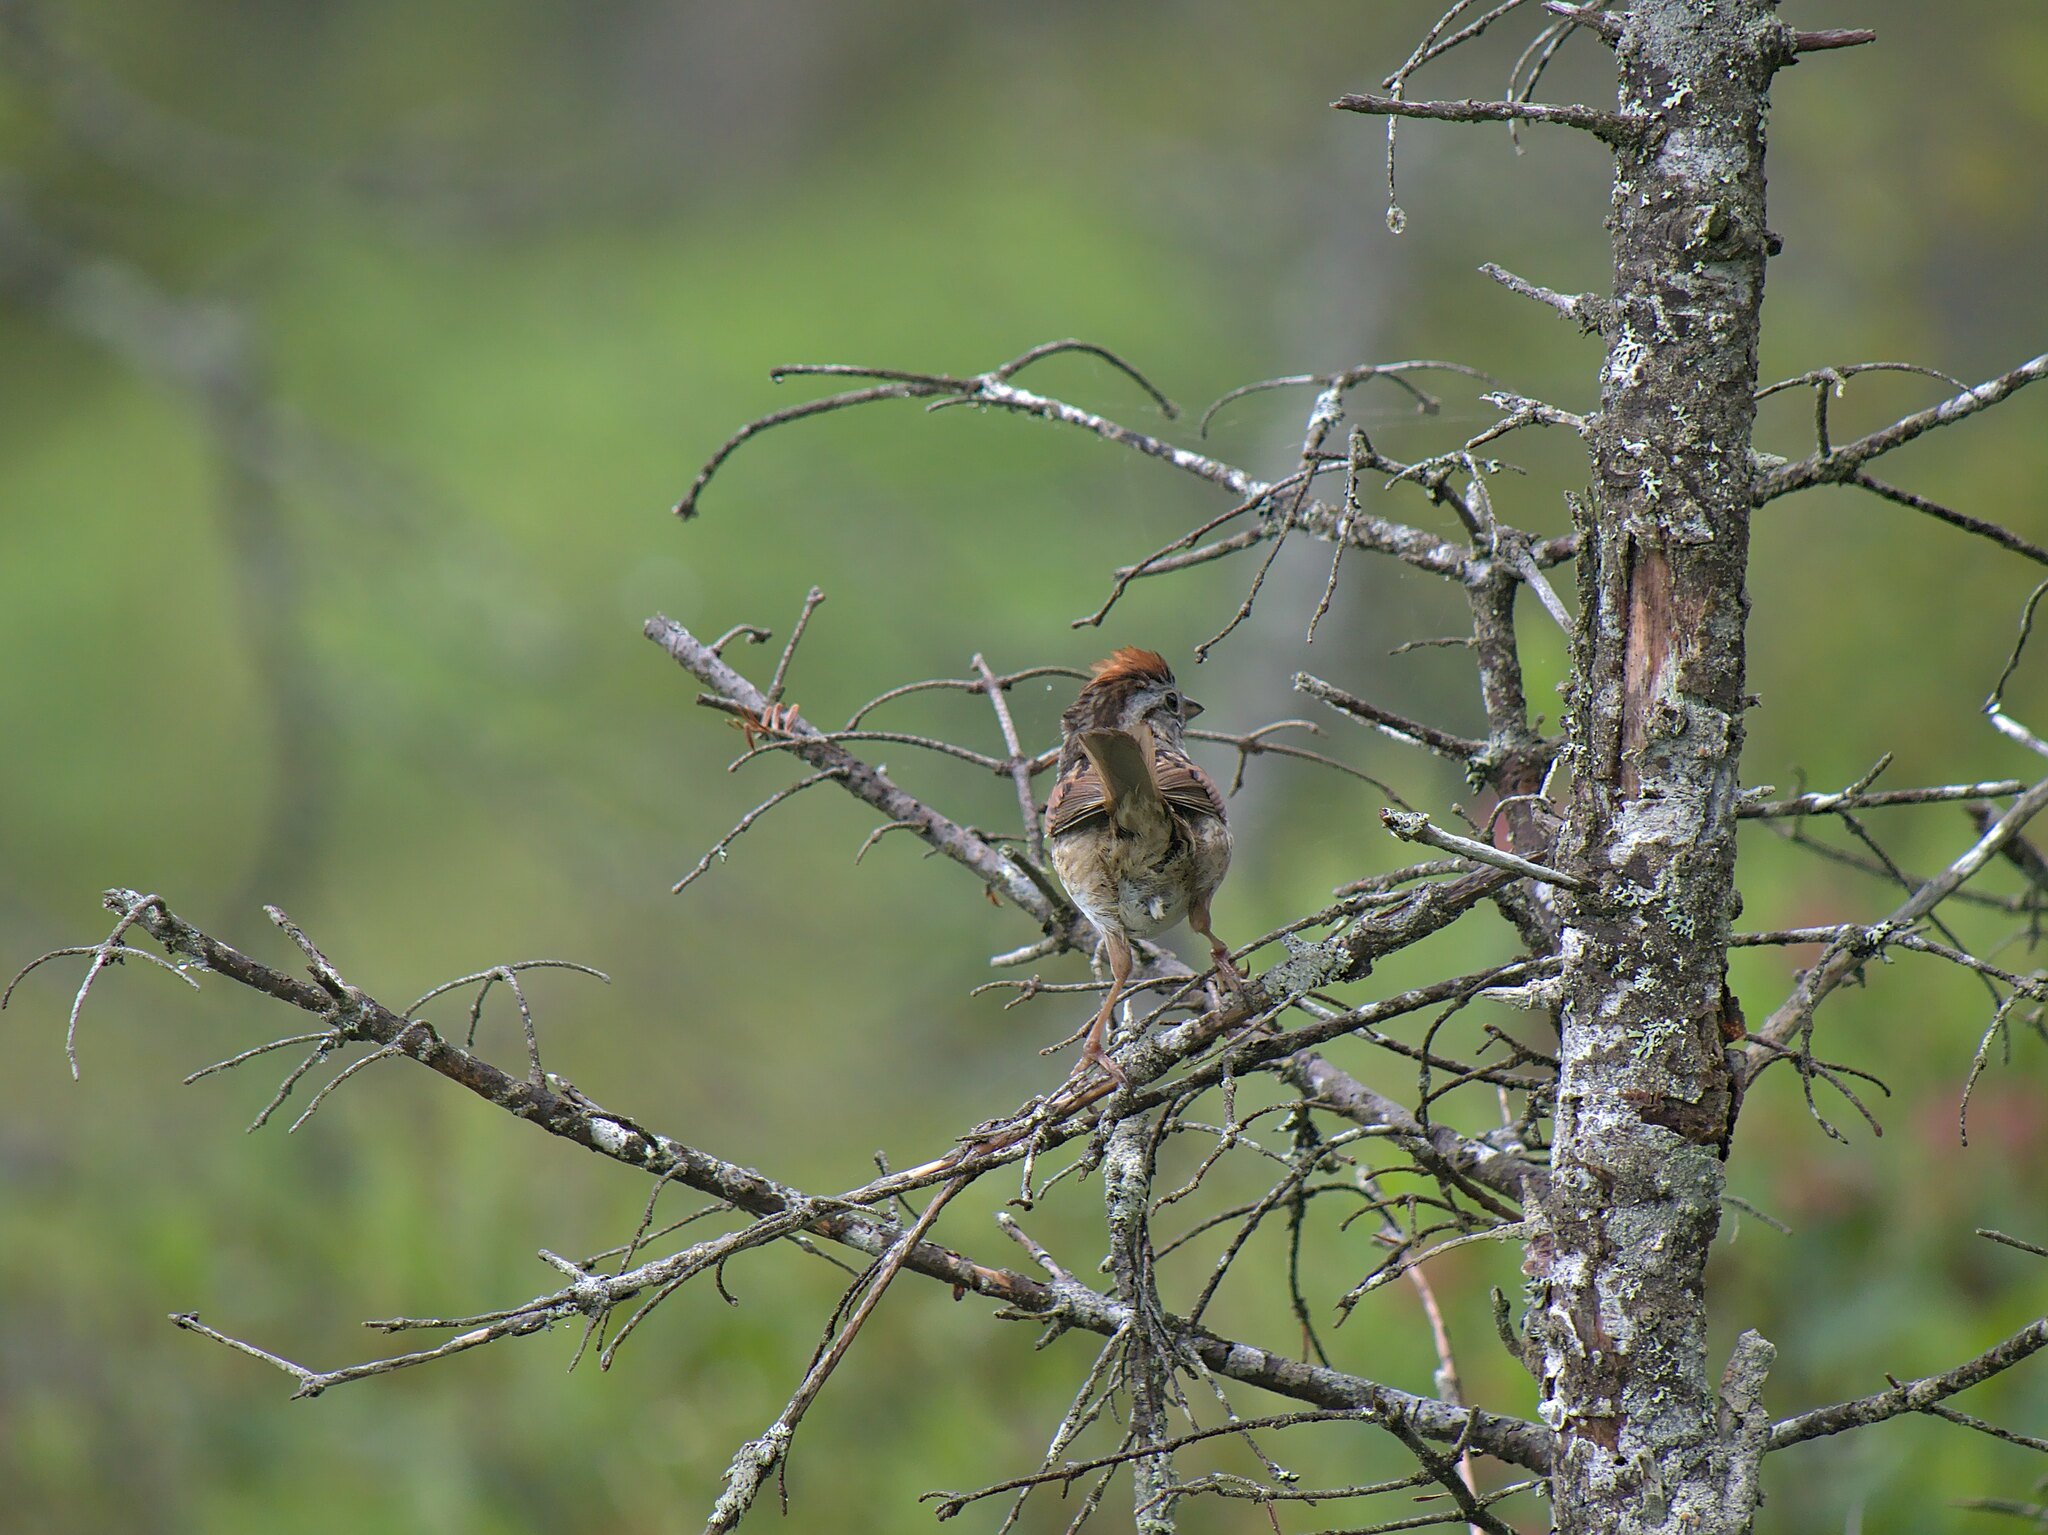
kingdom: Animalia
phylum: Chordata
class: Aves
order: Passeriformes
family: Passerellidae
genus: Melospiza
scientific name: Melospiza georgiana
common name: Swamp sparrow
